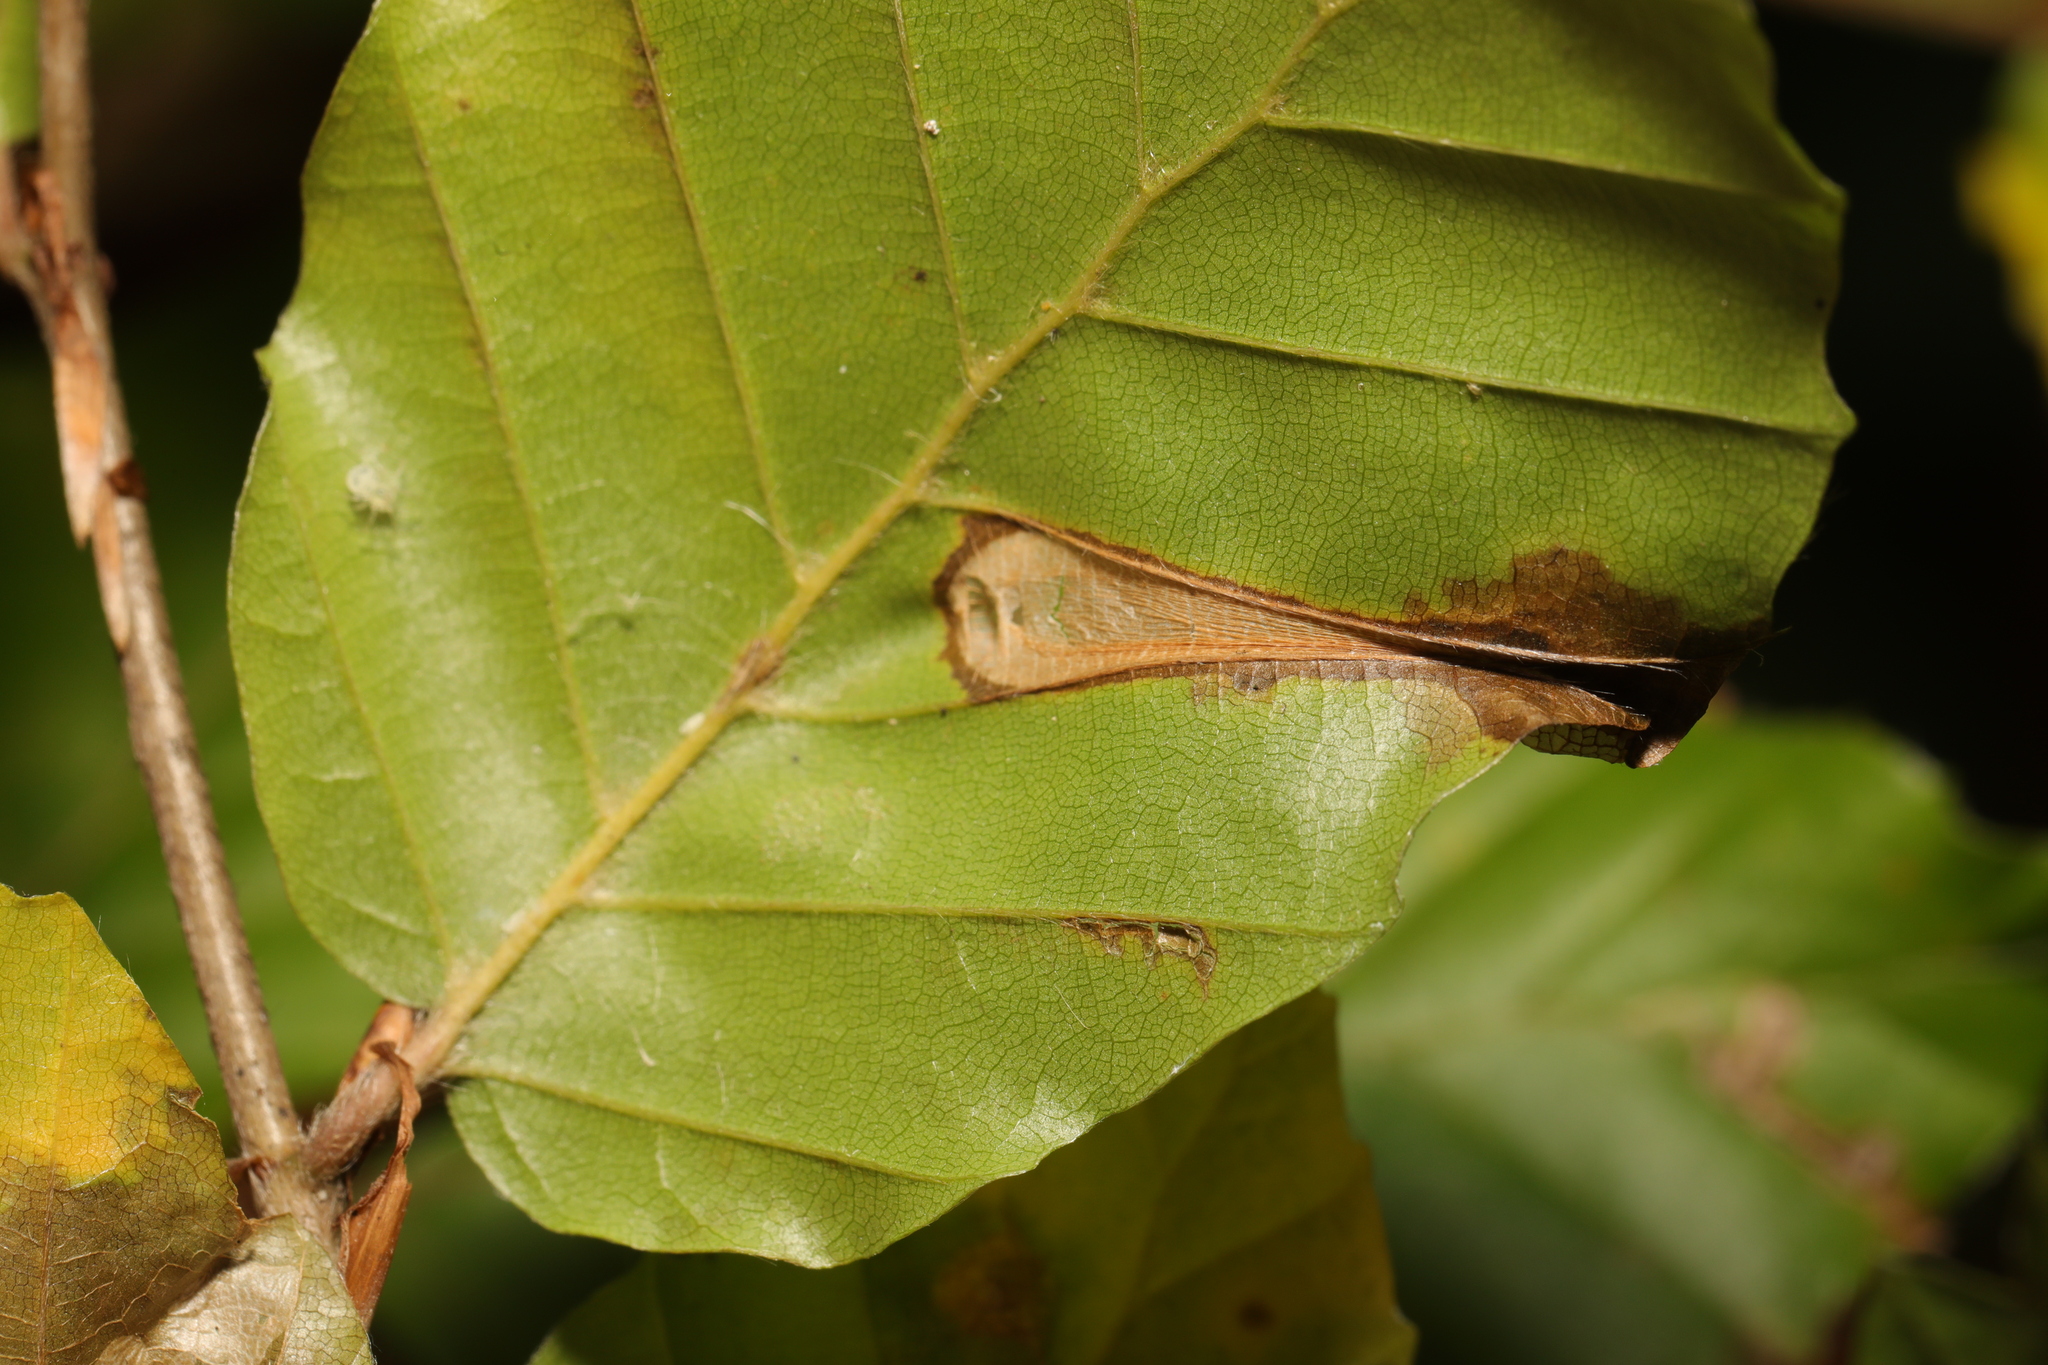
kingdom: Animalia
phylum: Arthropoda
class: Insecta
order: Lepidoptera
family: Gracillariidae
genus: Phyllonorycter
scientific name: Phyllonorycter maestingella
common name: Beech midget
